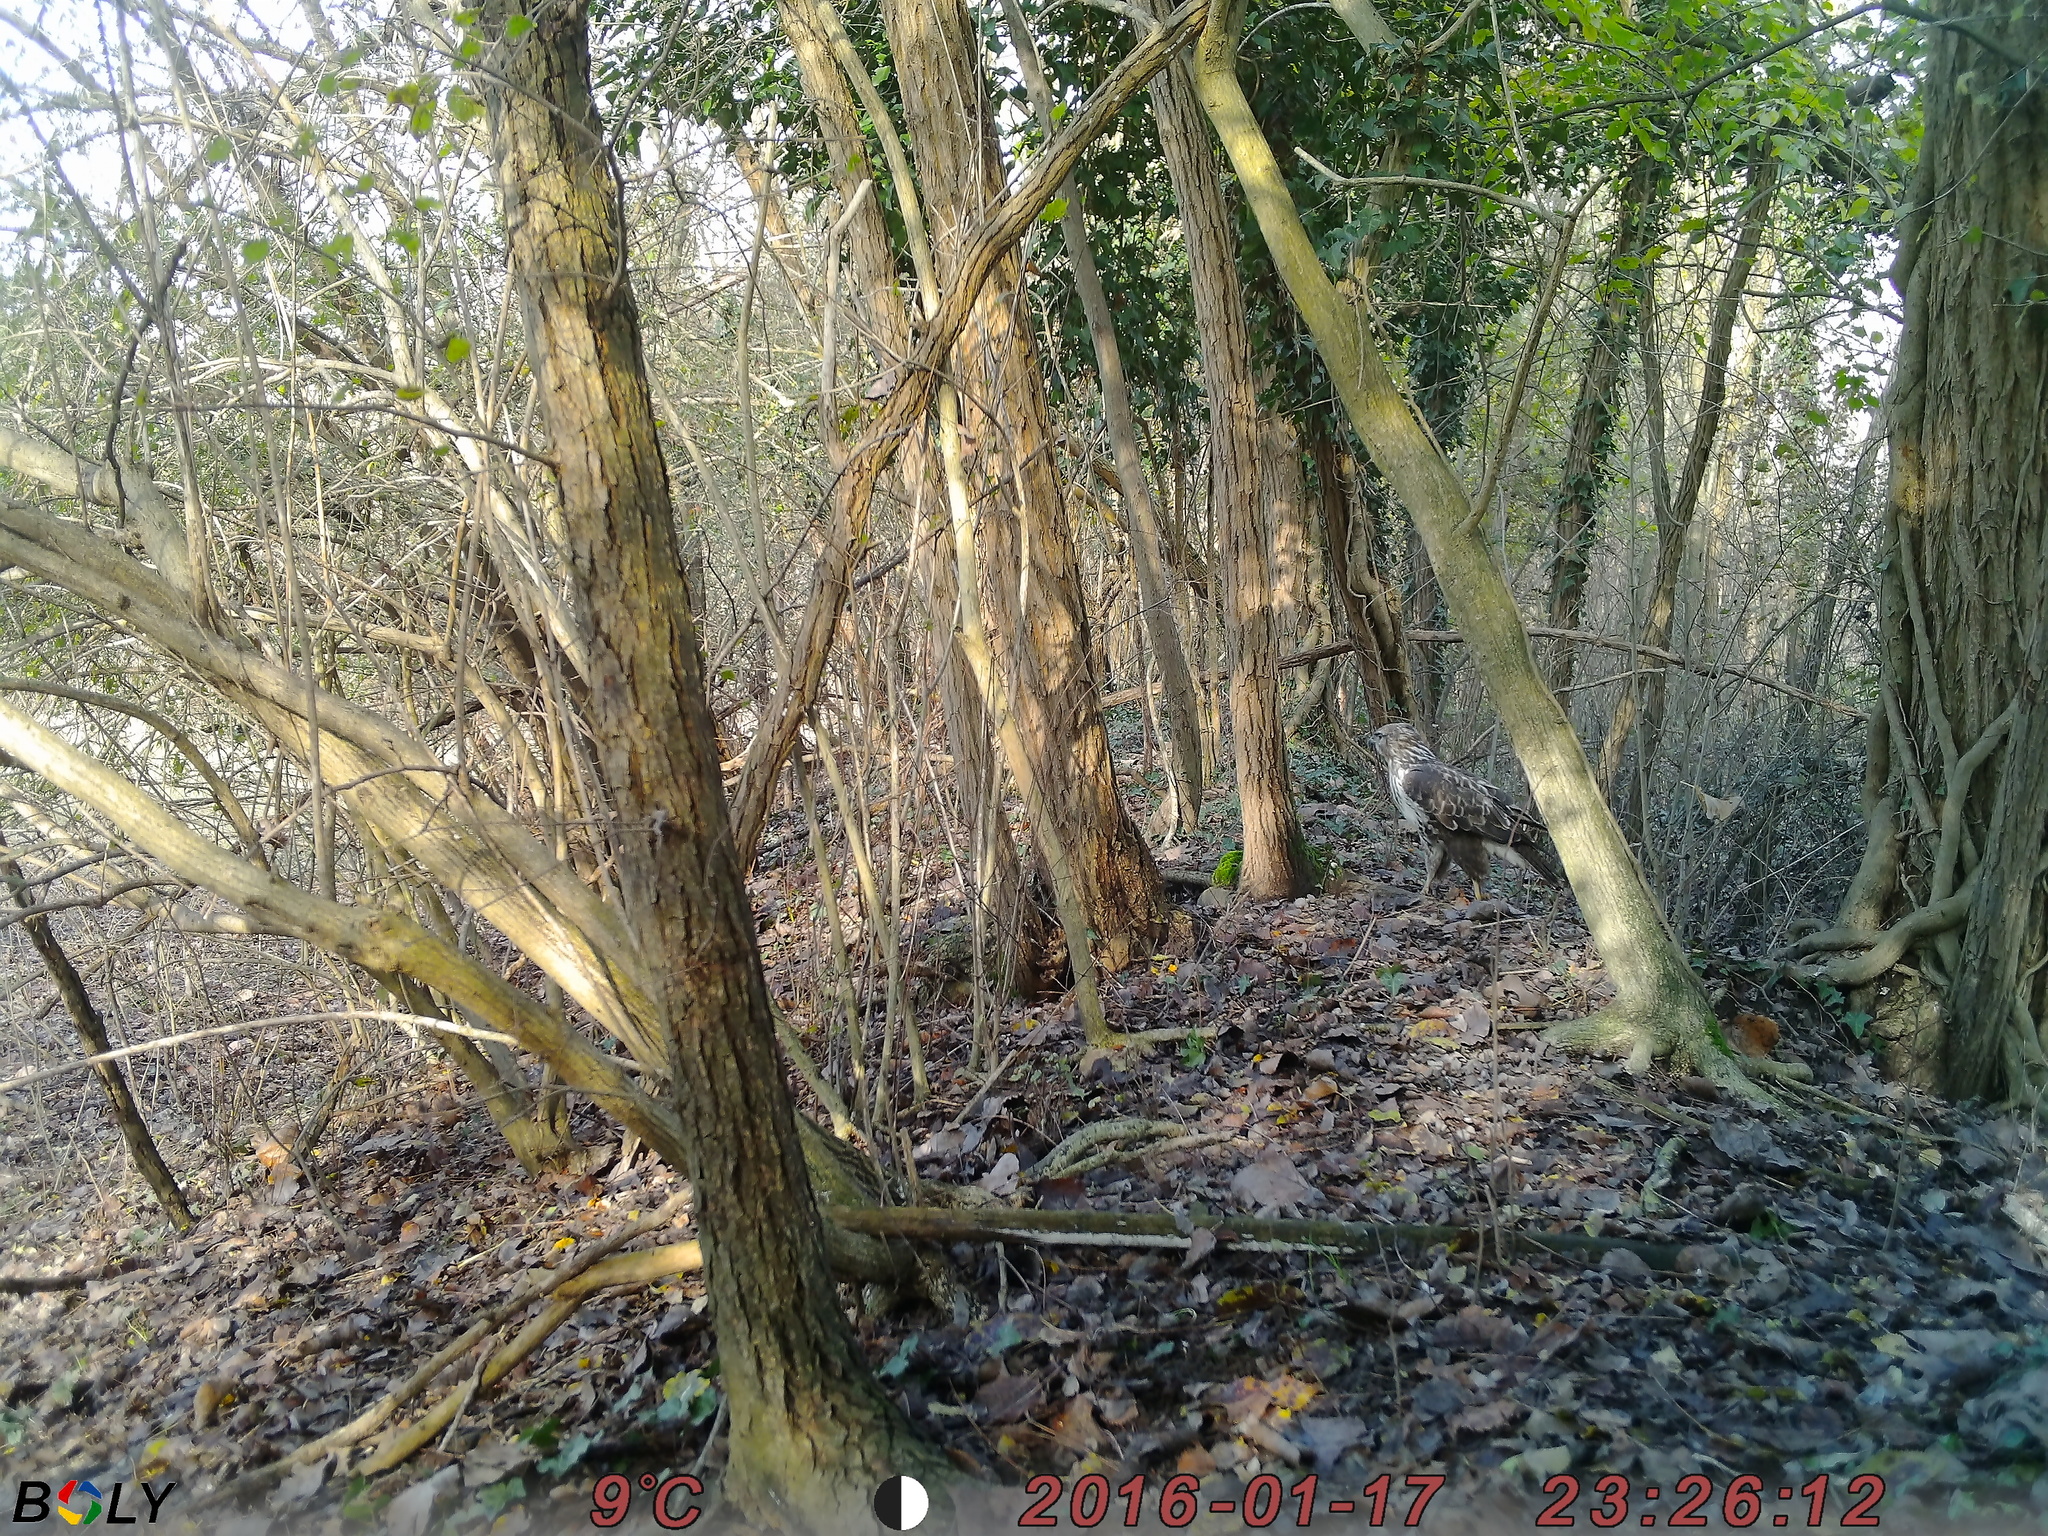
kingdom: Animalia
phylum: Chordata
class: Aves
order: Accipitriformes
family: Accipitridae
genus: Buteo
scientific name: Buteo buteo
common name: Common buzzard
